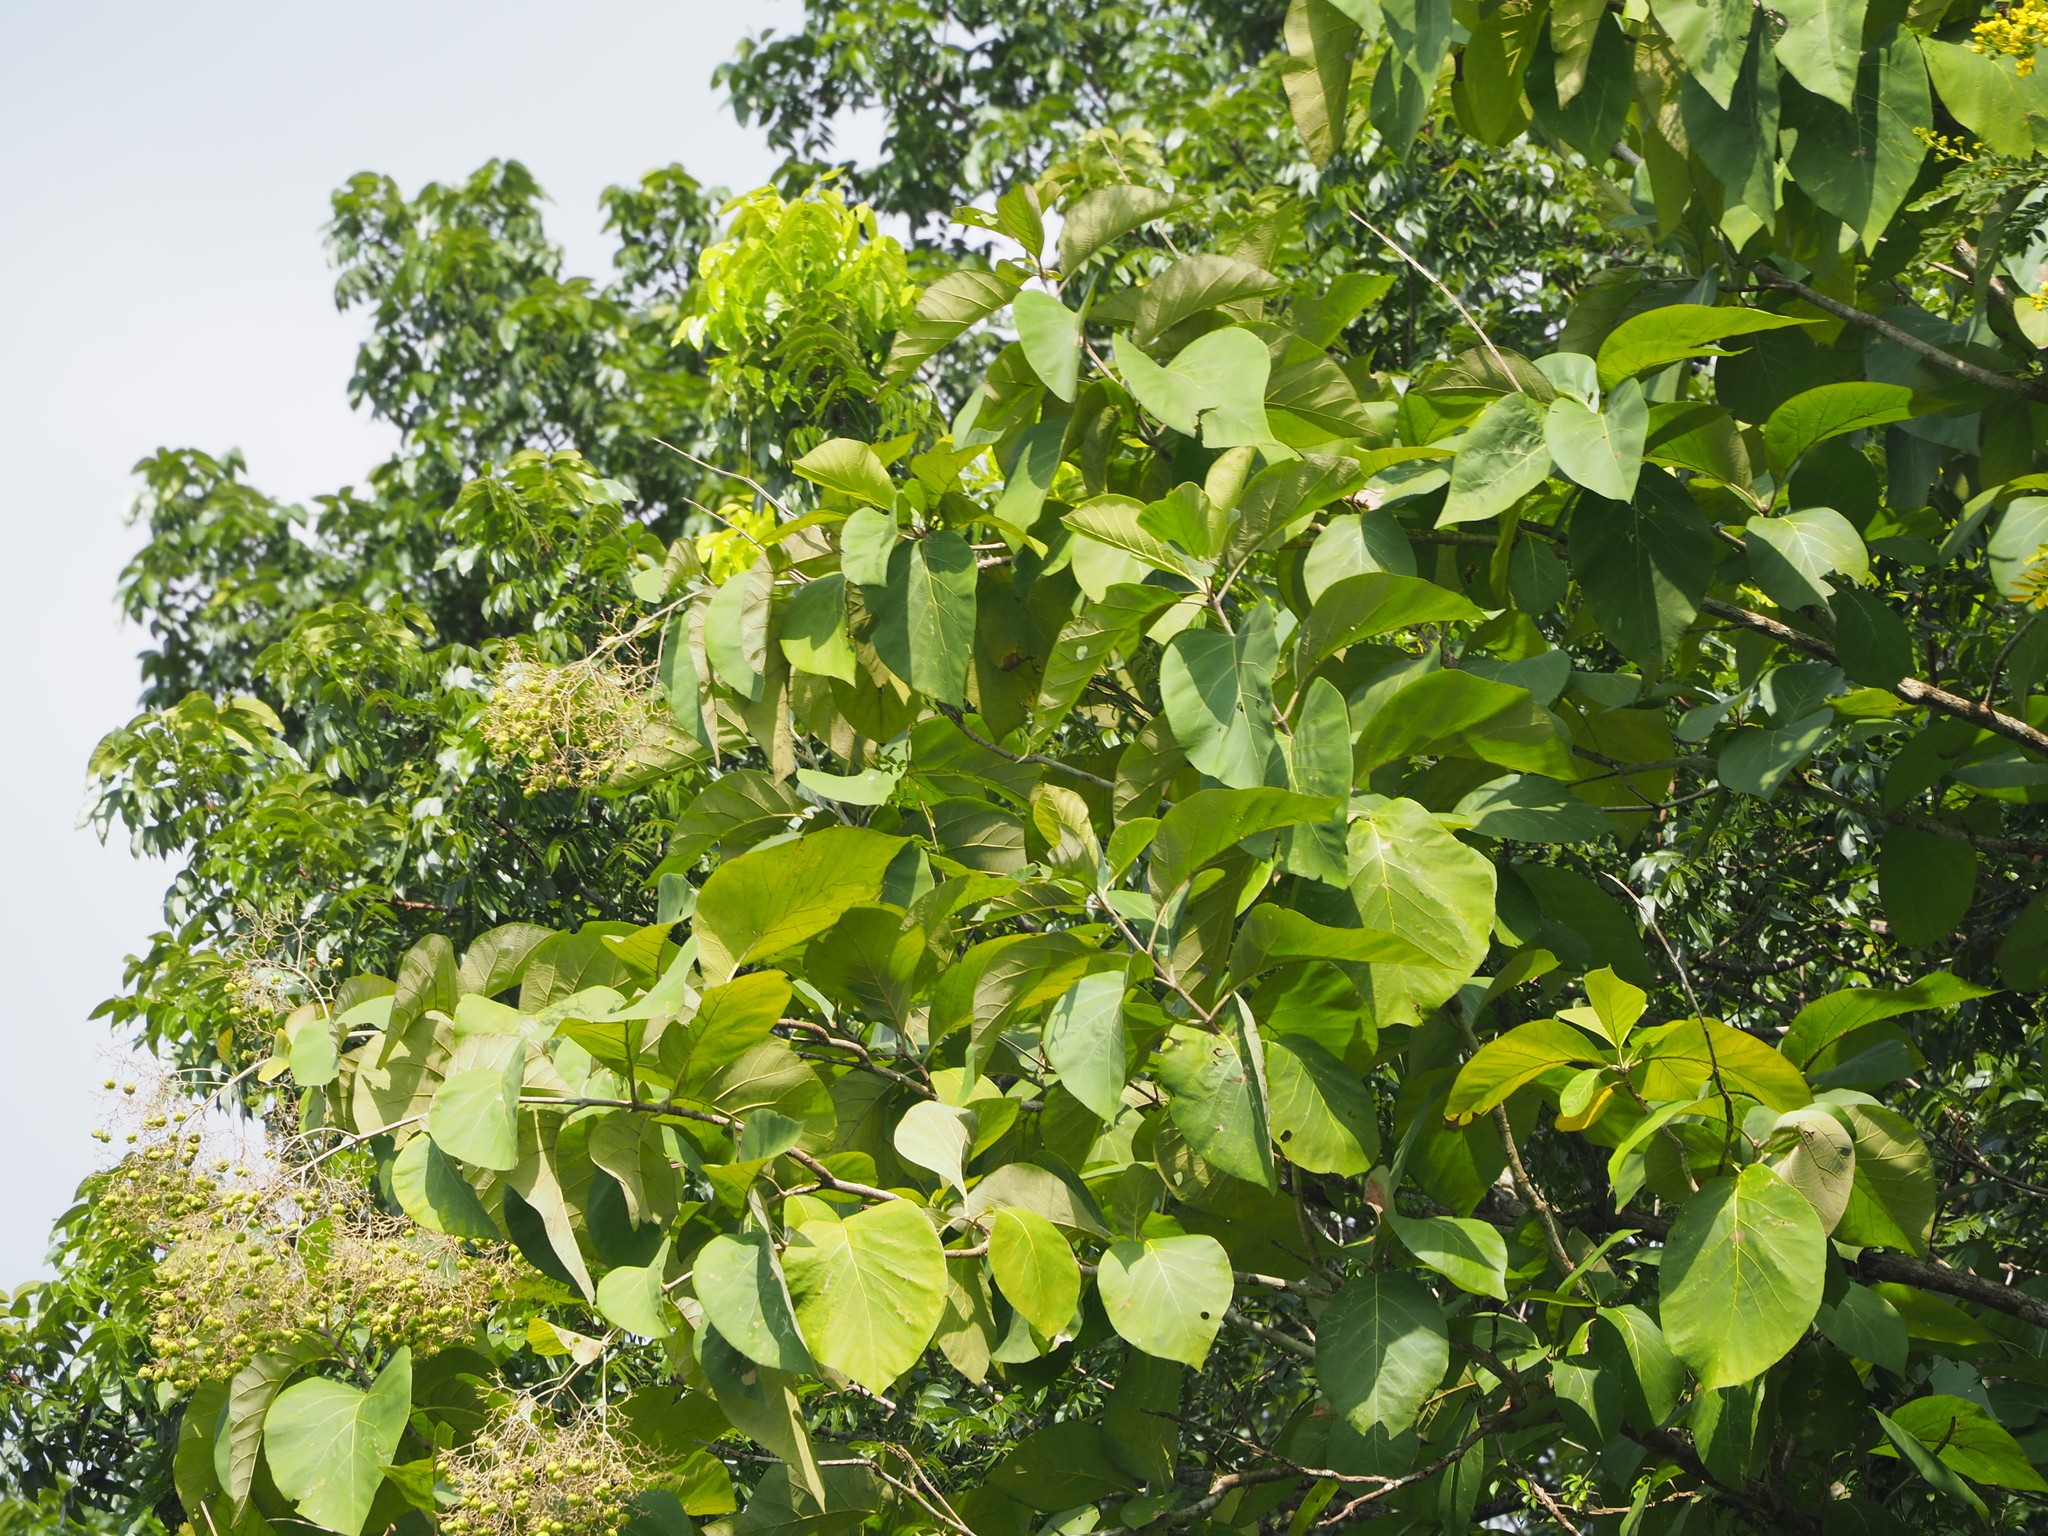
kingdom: Plantae
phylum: Tracheophyta
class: Magnoliopsida
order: Lamiales
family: Lamiaceae
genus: Tectona
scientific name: Tectona grandis
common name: Teak
